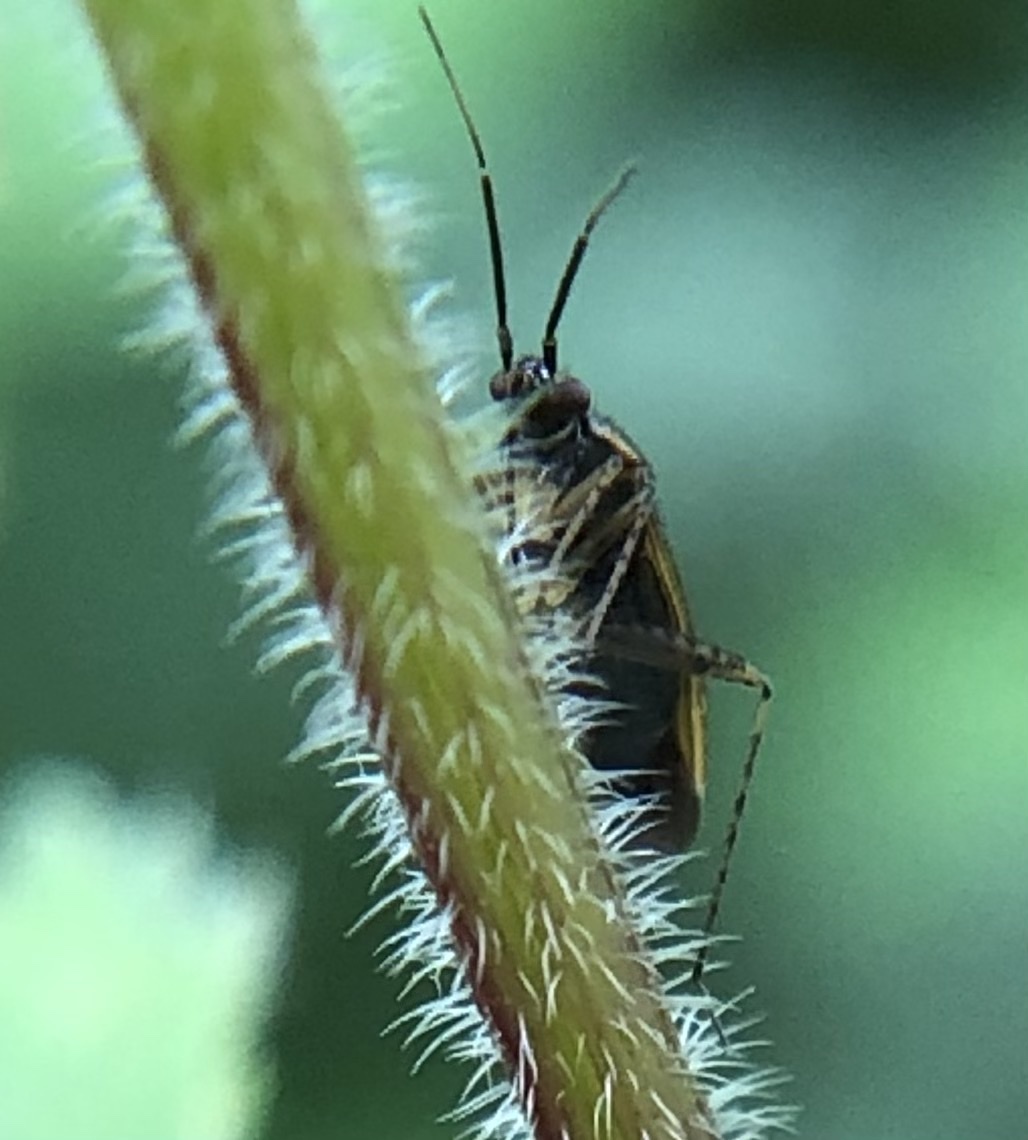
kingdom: Animalia
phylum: Arthropoda
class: Insecta
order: Hemiptera
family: Miridae
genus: Plagiognathus
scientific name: Plagiognathus arbustorum
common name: Plant bug
